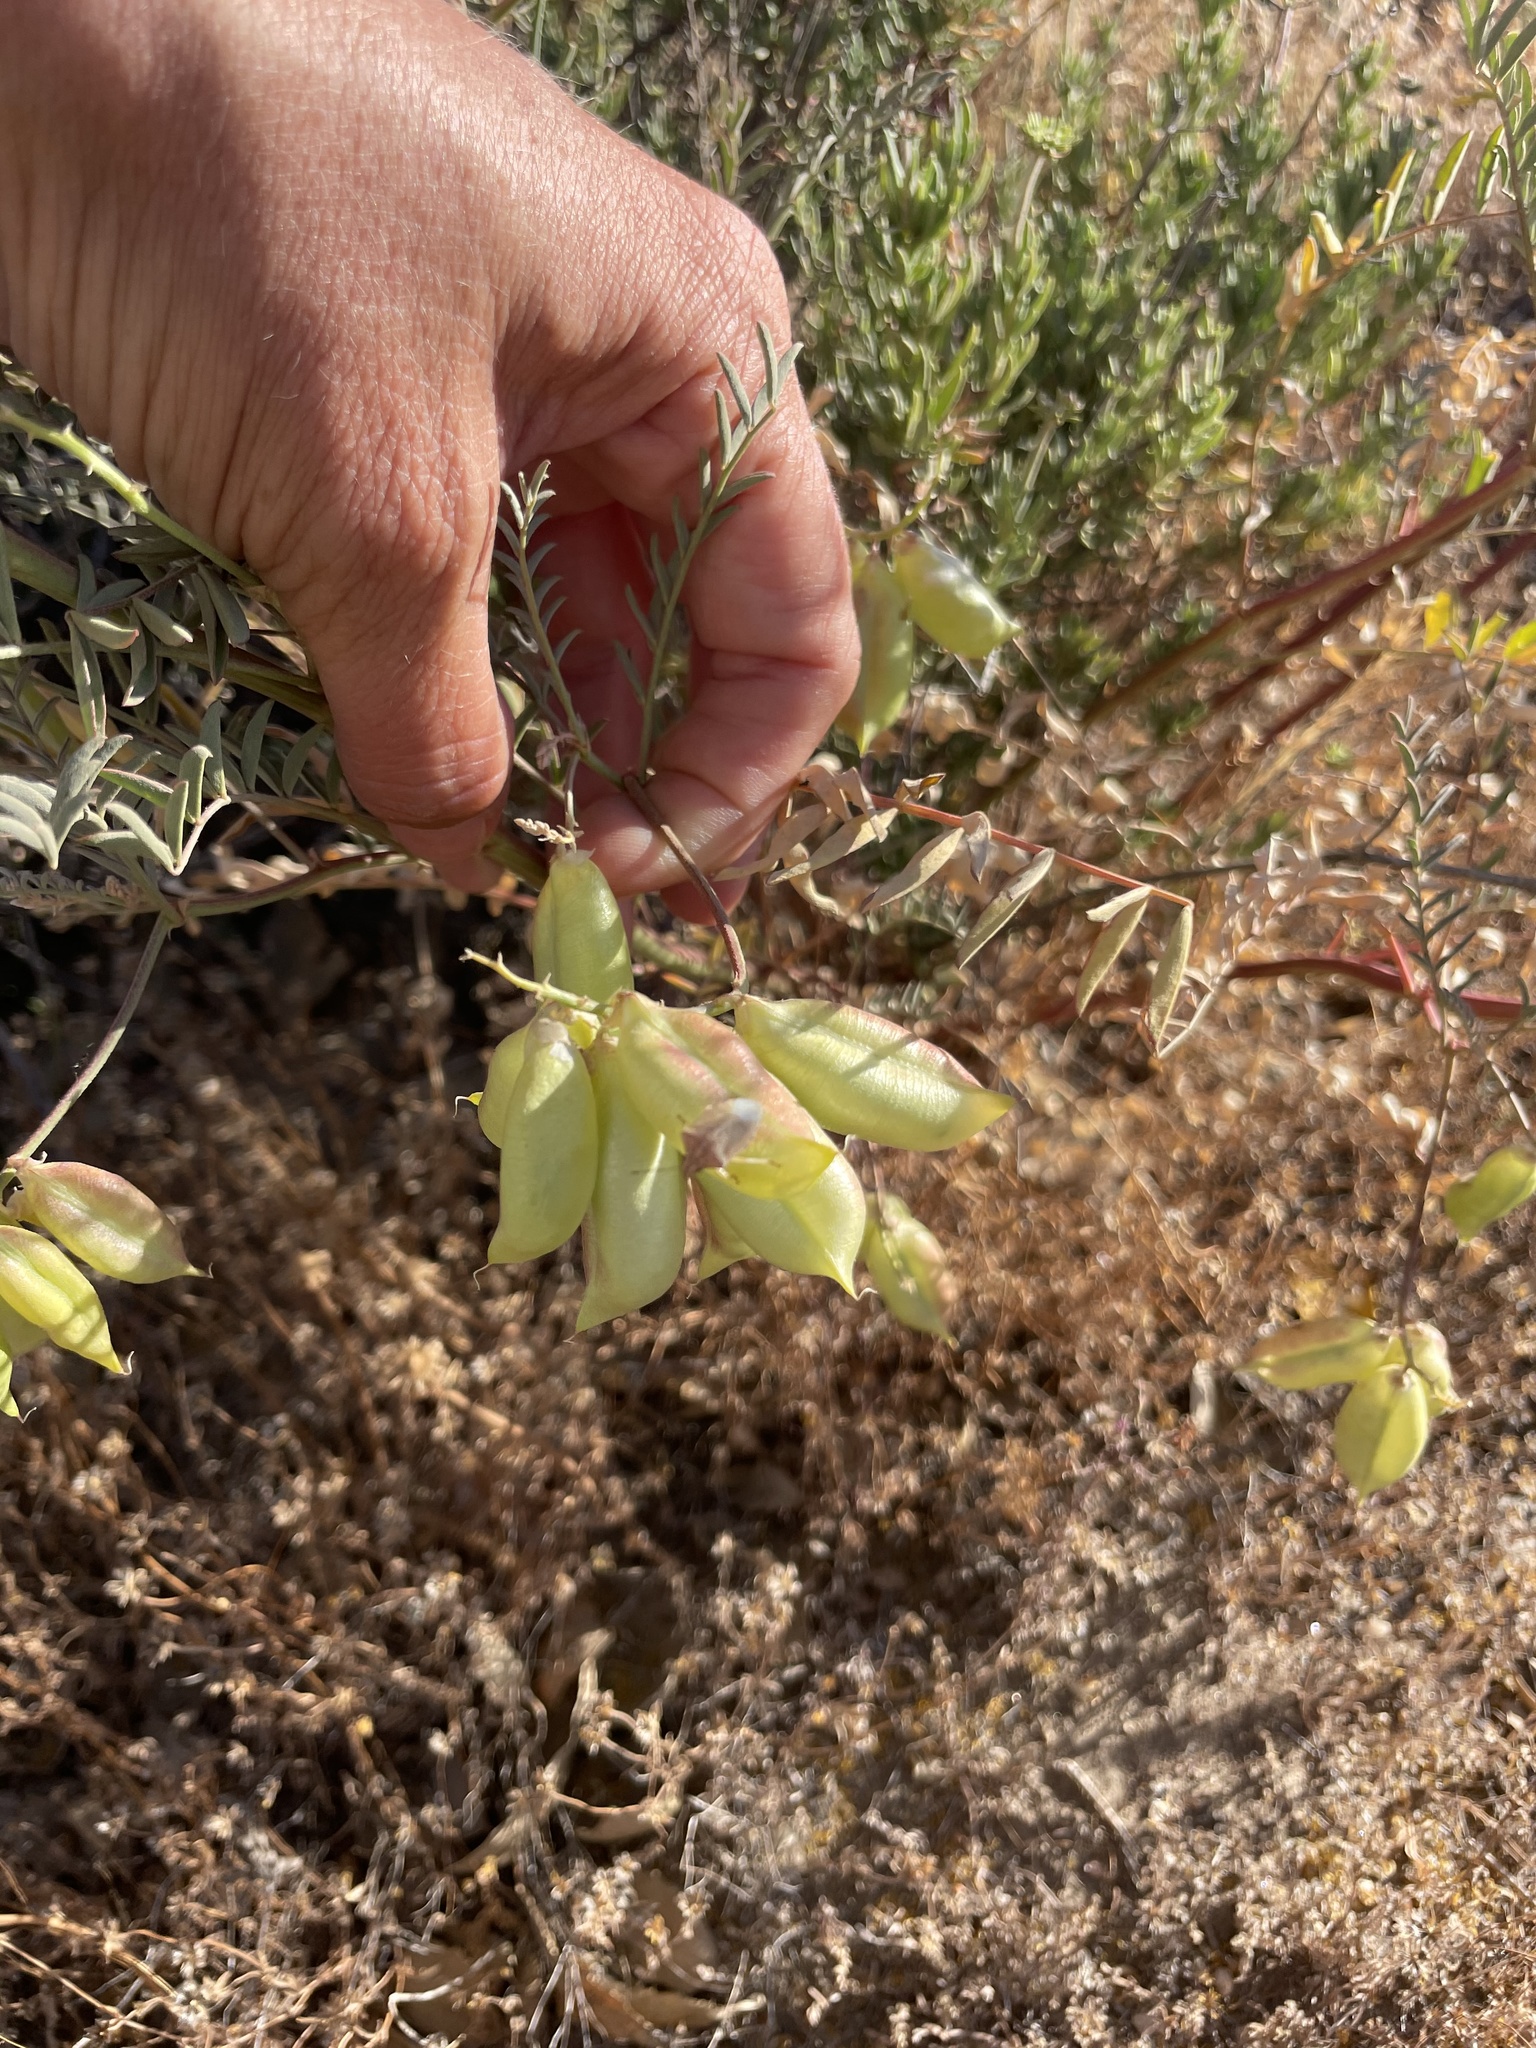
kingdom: Plantae
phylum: Tracheophyta
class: Magnoliopsida
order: Fabales
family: Fabaceae
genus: Astragalus
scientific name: Astragalus douglasii
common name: Jacumba milkvetch
